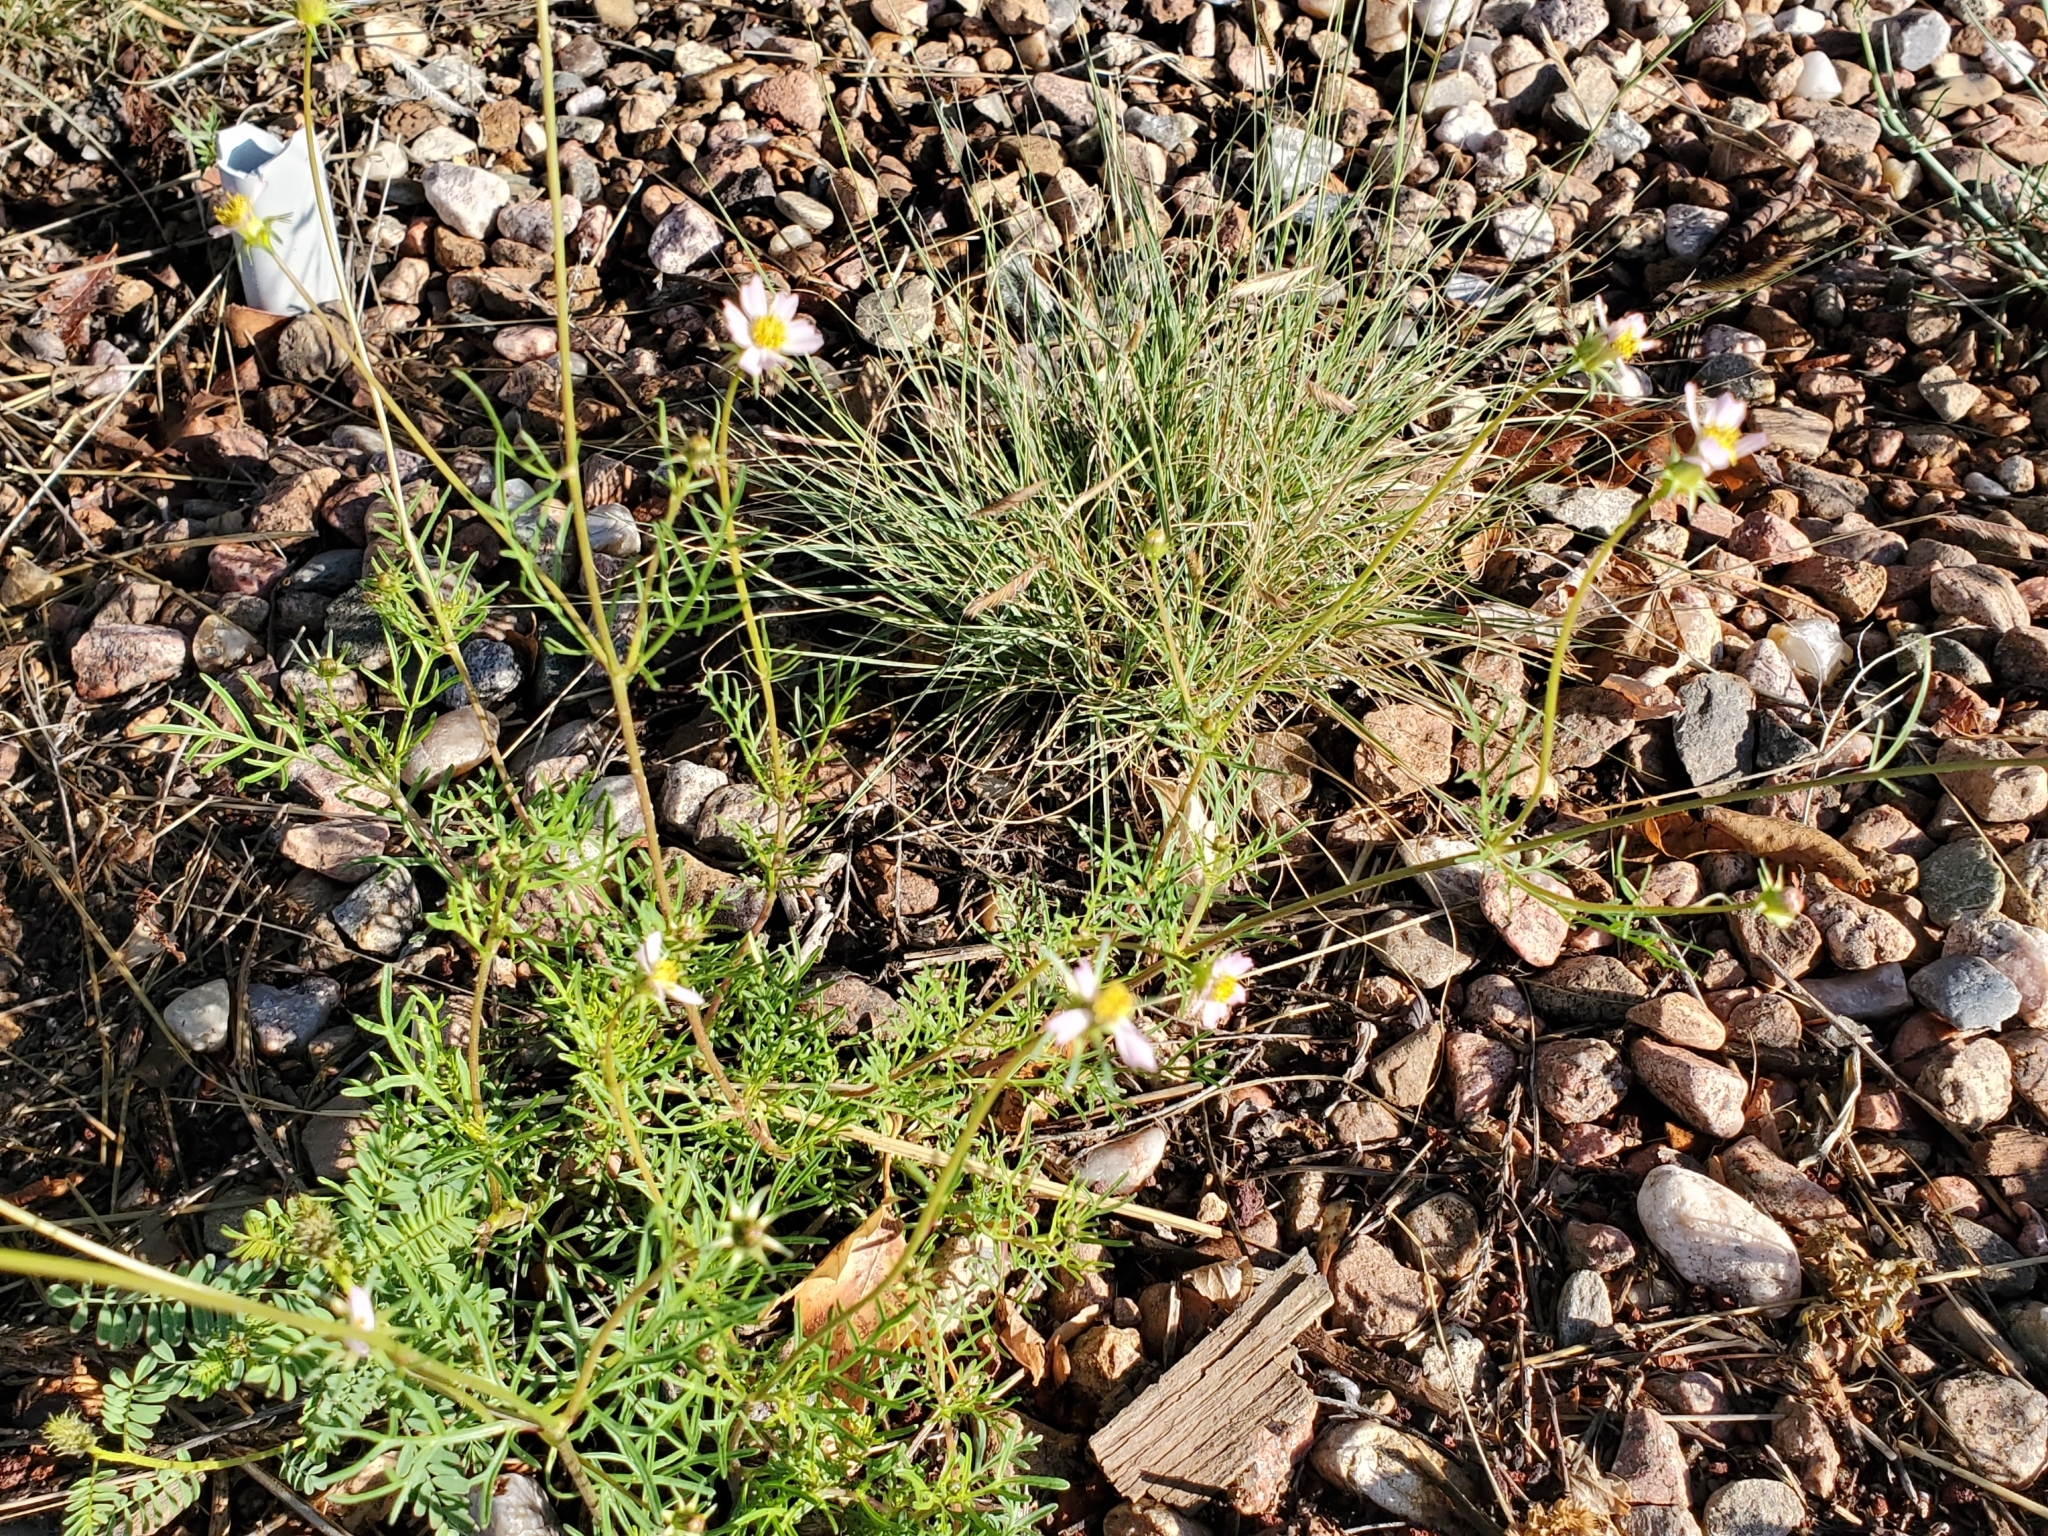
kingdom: Plantae
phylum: Tracheophyta
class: Magnoliopsida
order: Asterales
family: Asteraceae
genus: Cosmos
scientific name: Cosmos parviflorus
